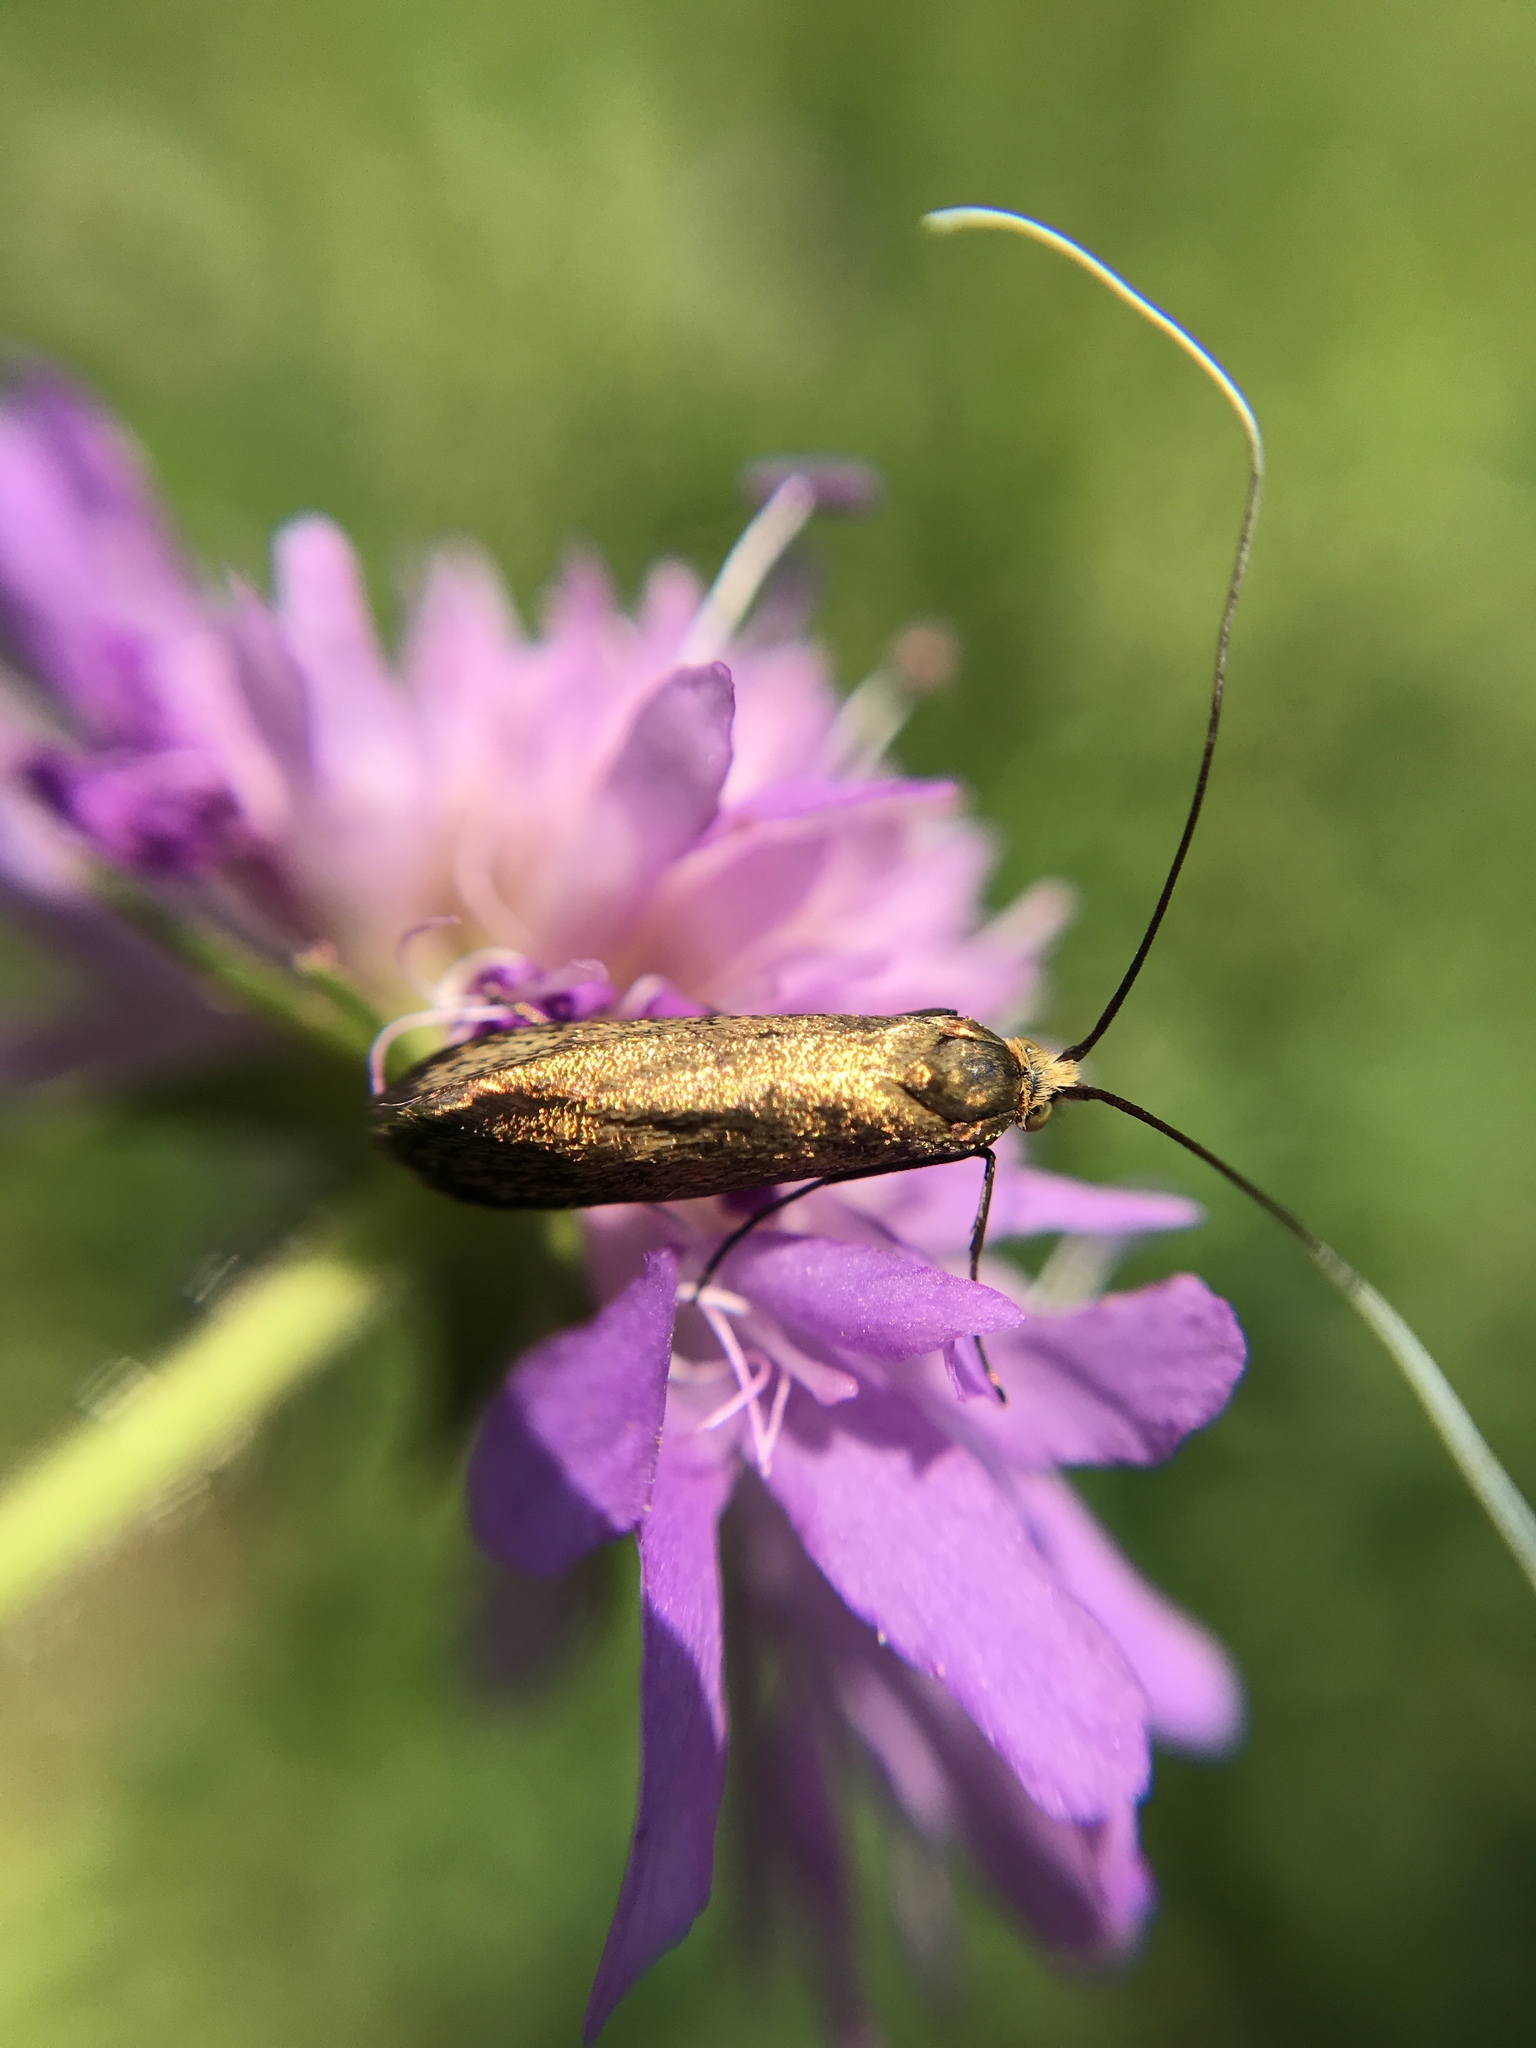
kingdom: Animalia
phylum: Arthropoda
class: Insecta
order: Lepidoptera
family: Adelidae
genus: Nemophora
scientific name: Nemophora metallica
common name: Brassy long-horn
